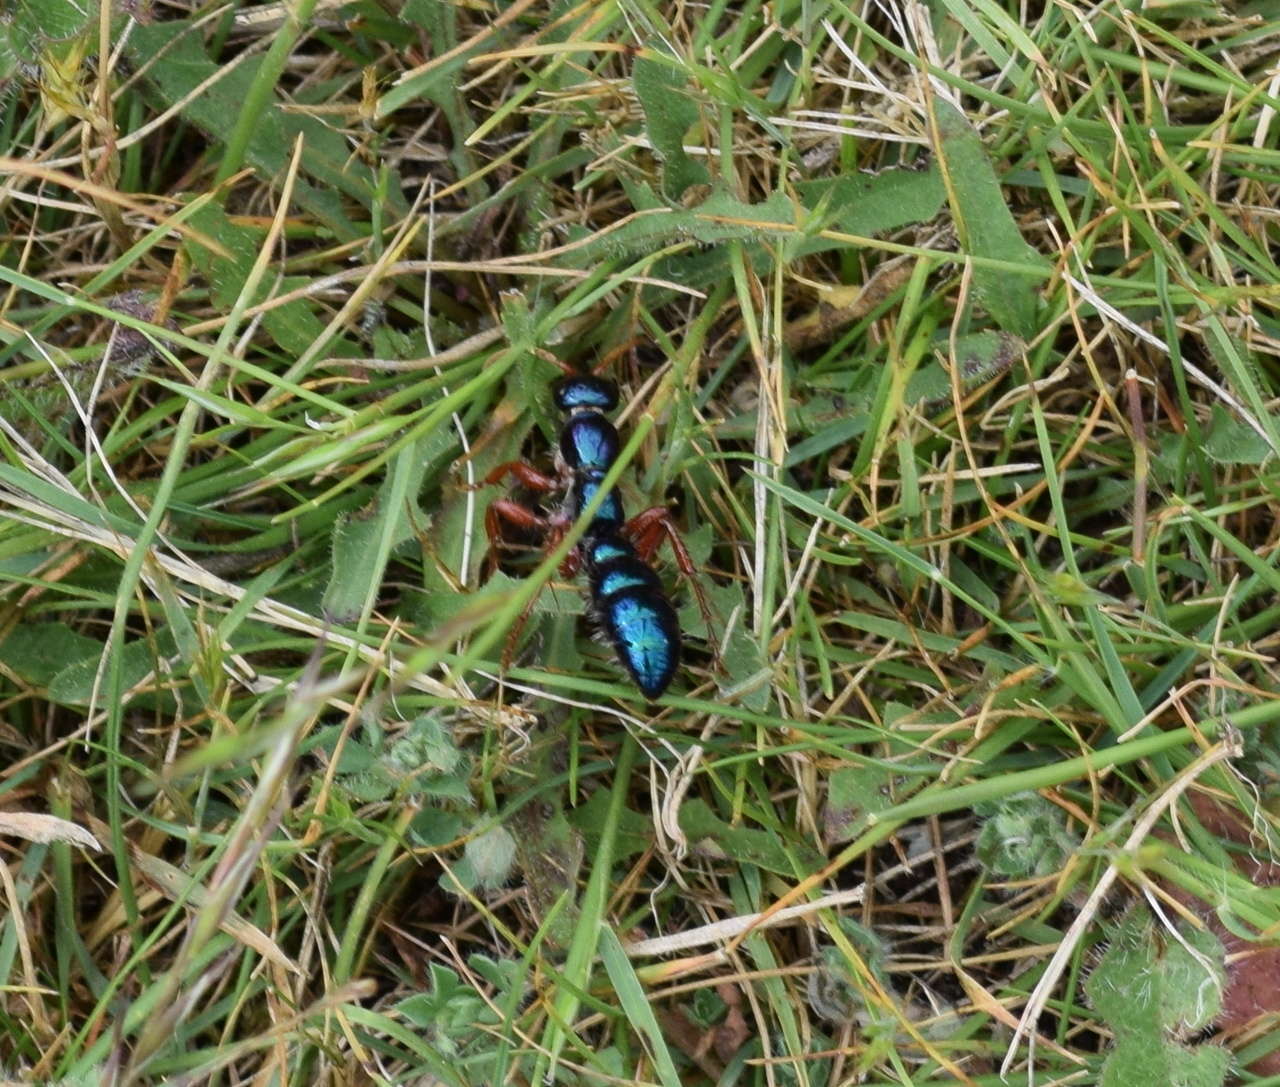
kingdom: Animalia
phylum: Arthropoda
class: Insecta
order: Hymenoptera
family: Tiphiidae
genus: Diamma
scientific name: Diamma
